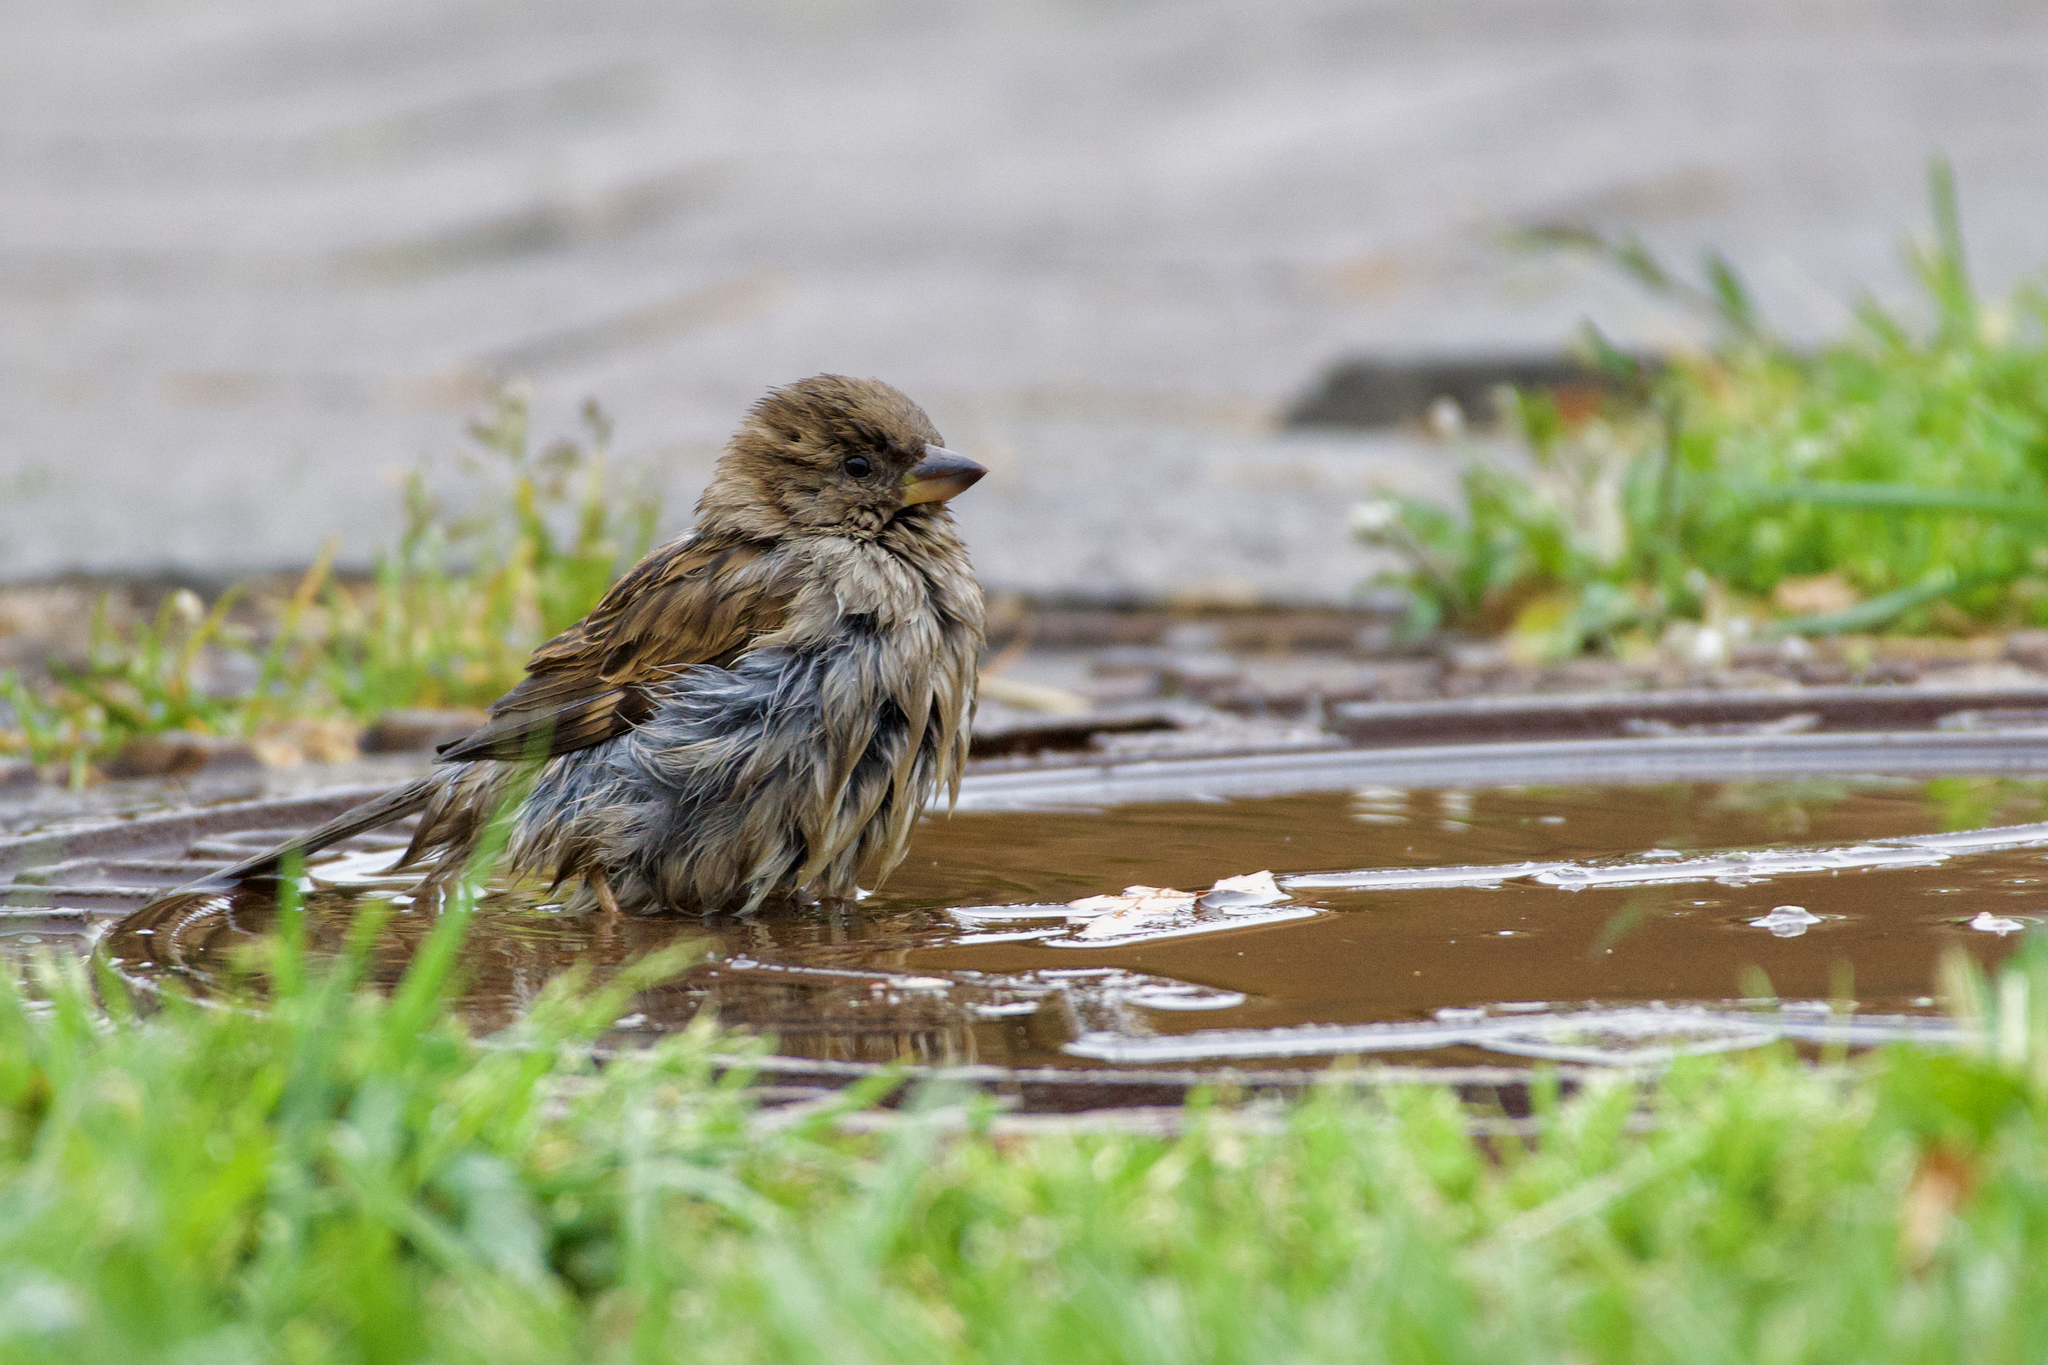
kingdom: Animalia
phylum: Chordata
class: Aves
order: Passeriformes
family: Passeridae
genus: Passer
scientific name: Passer domesticus
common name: House sparrow
